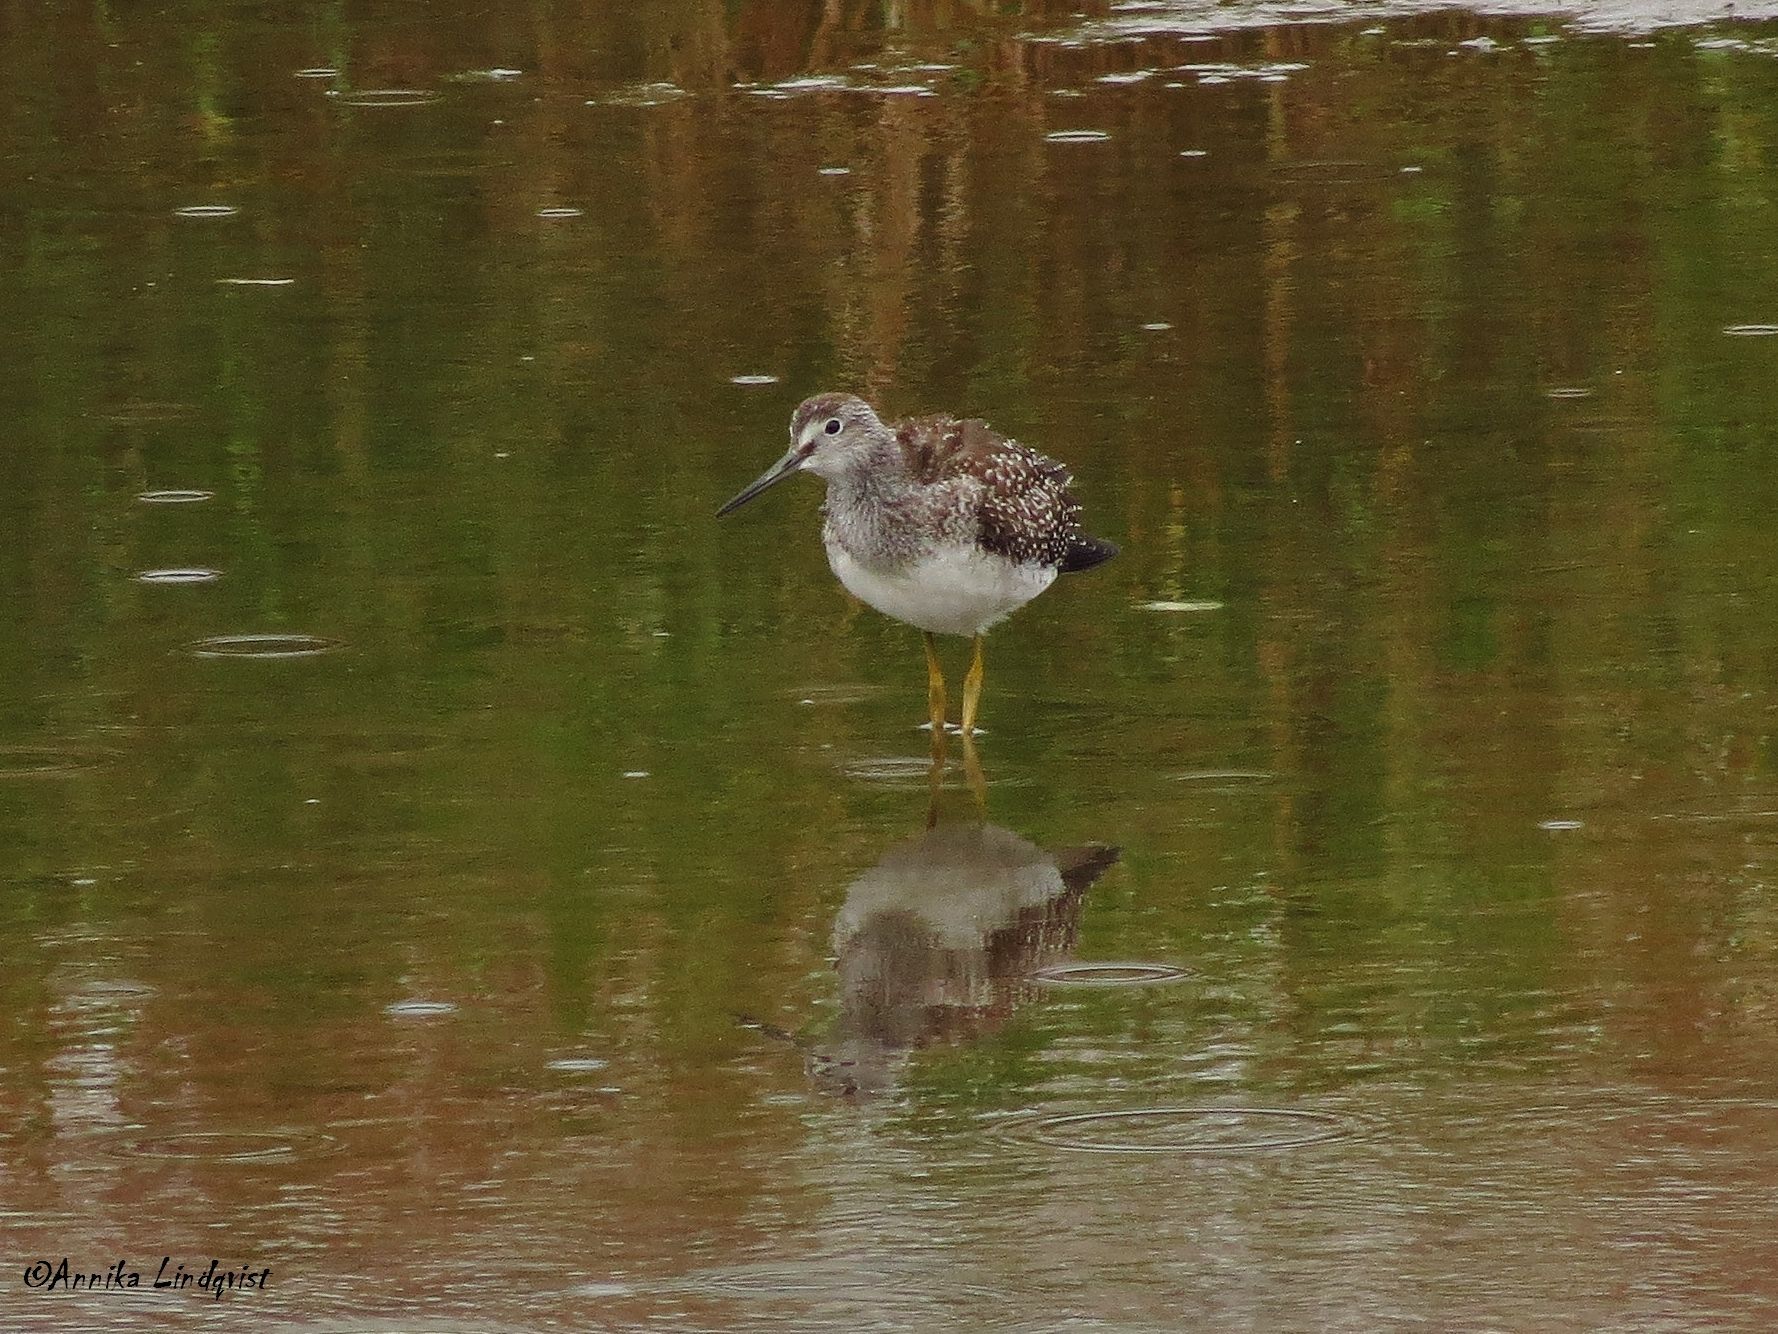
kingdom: Animalia
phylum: Chordata
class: Aves
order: Charadriiformes
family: Scolopacidae
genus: Tringa
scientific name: Tringa melanoleuca
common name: Greater yellowlegs
